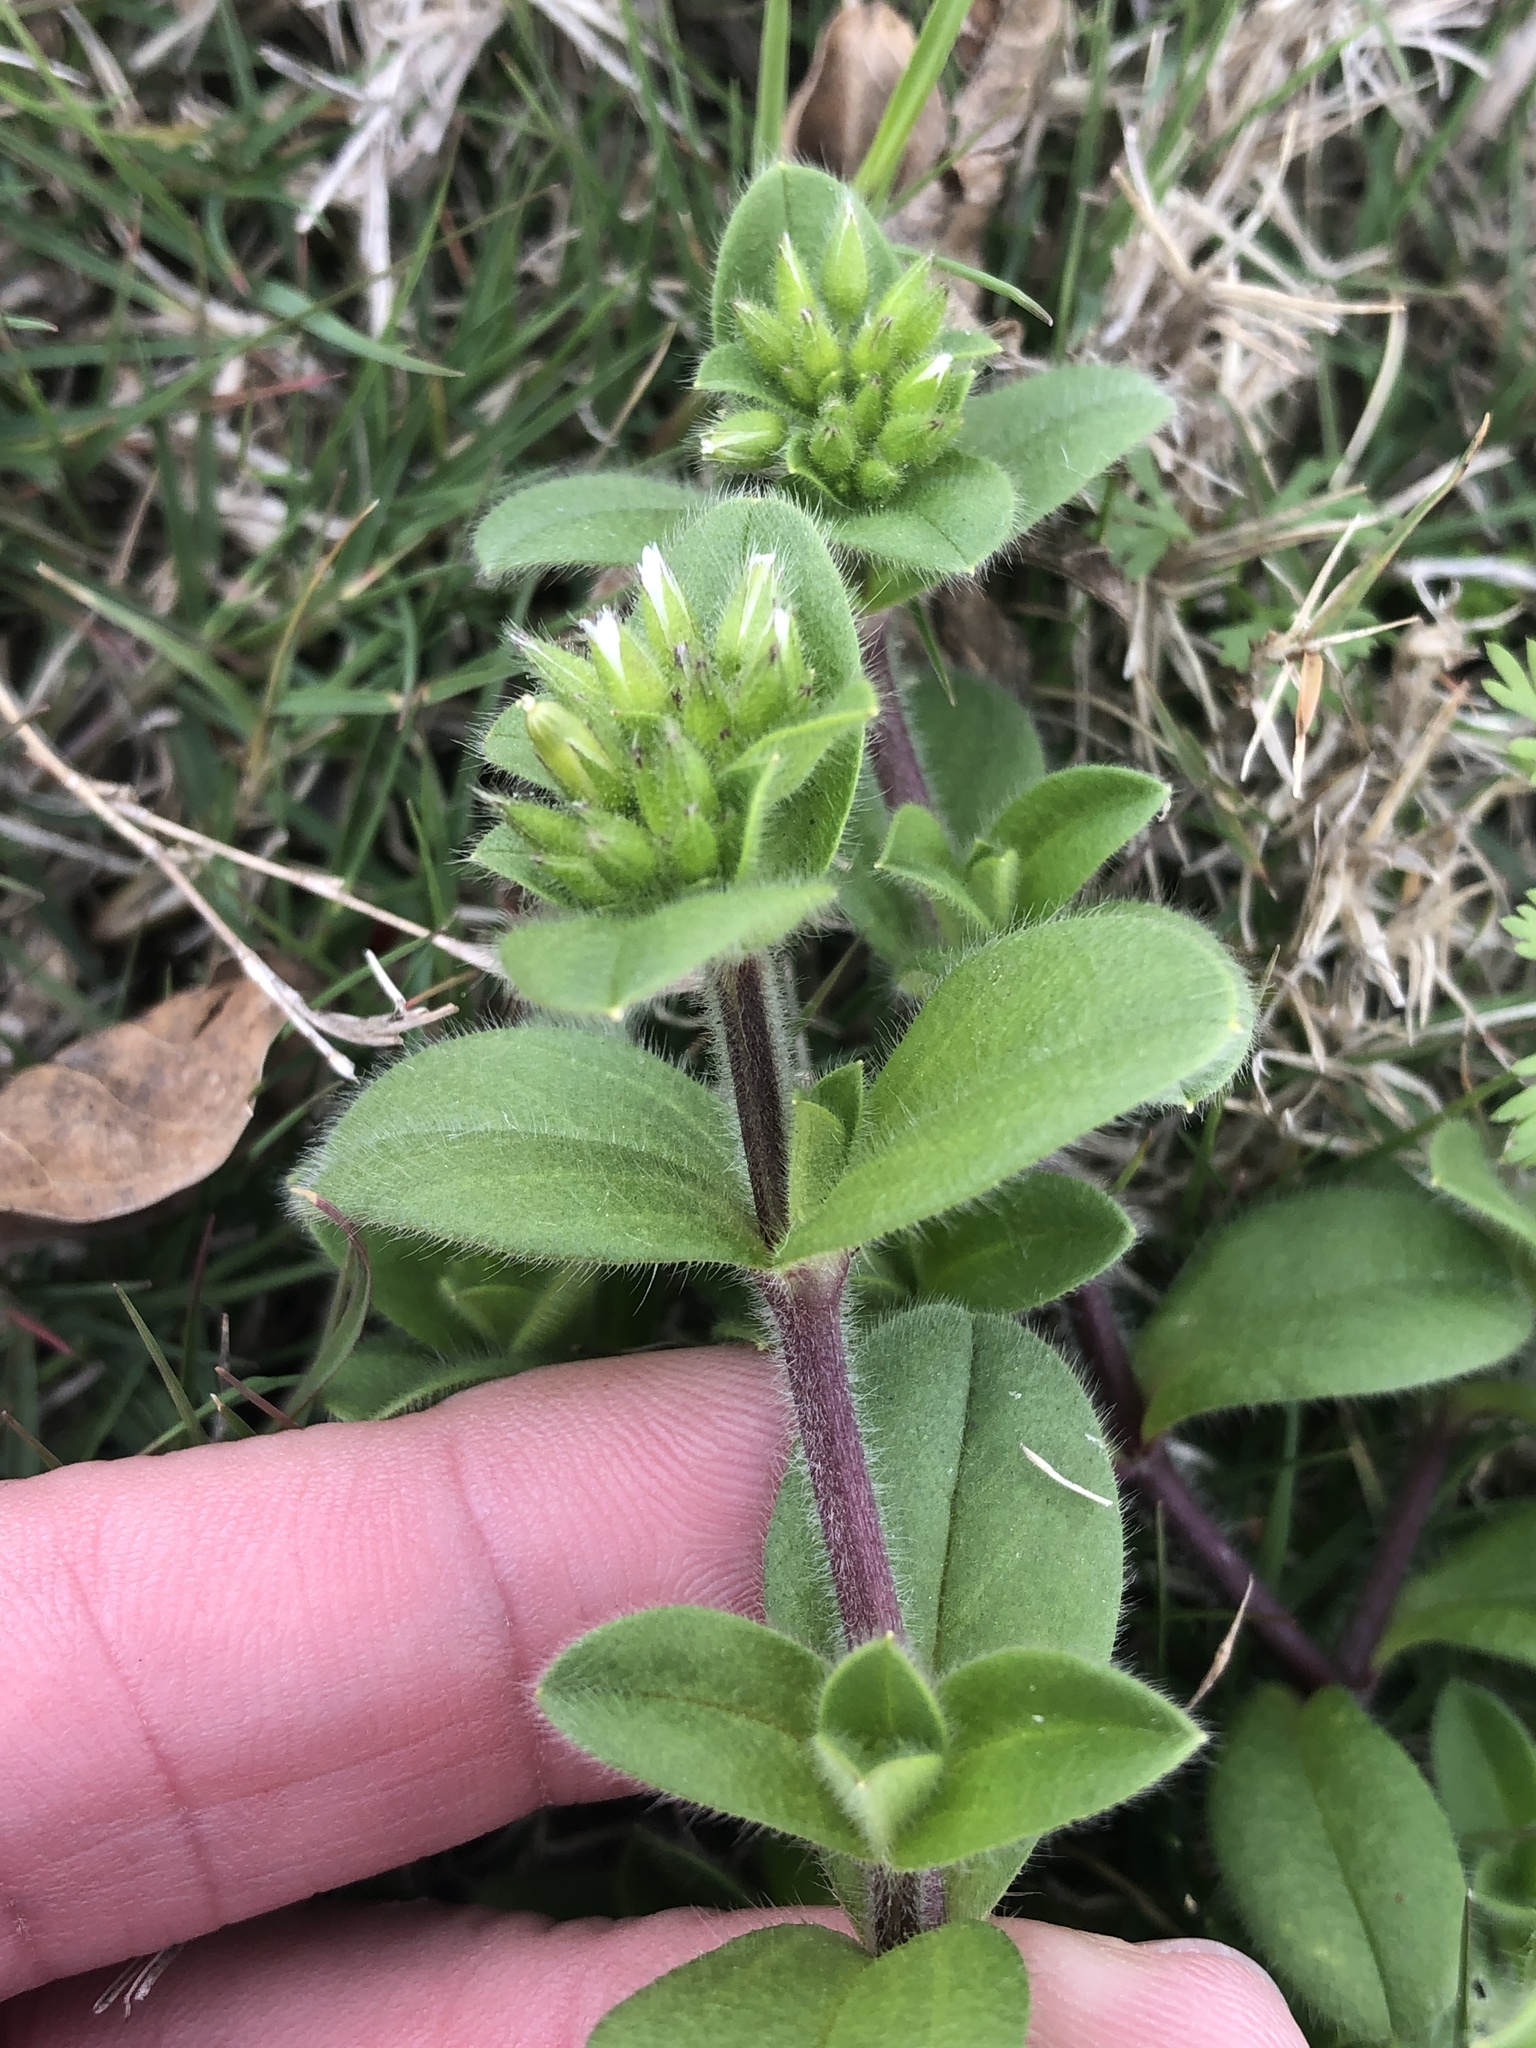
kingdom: Plantae
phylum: Tracheophyta
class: Magnoliopsida
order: Caryophyllales
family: Caryophyllaceae
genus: Cerastium
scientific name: Cerastium glomeratum
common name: Sticky chickweed
